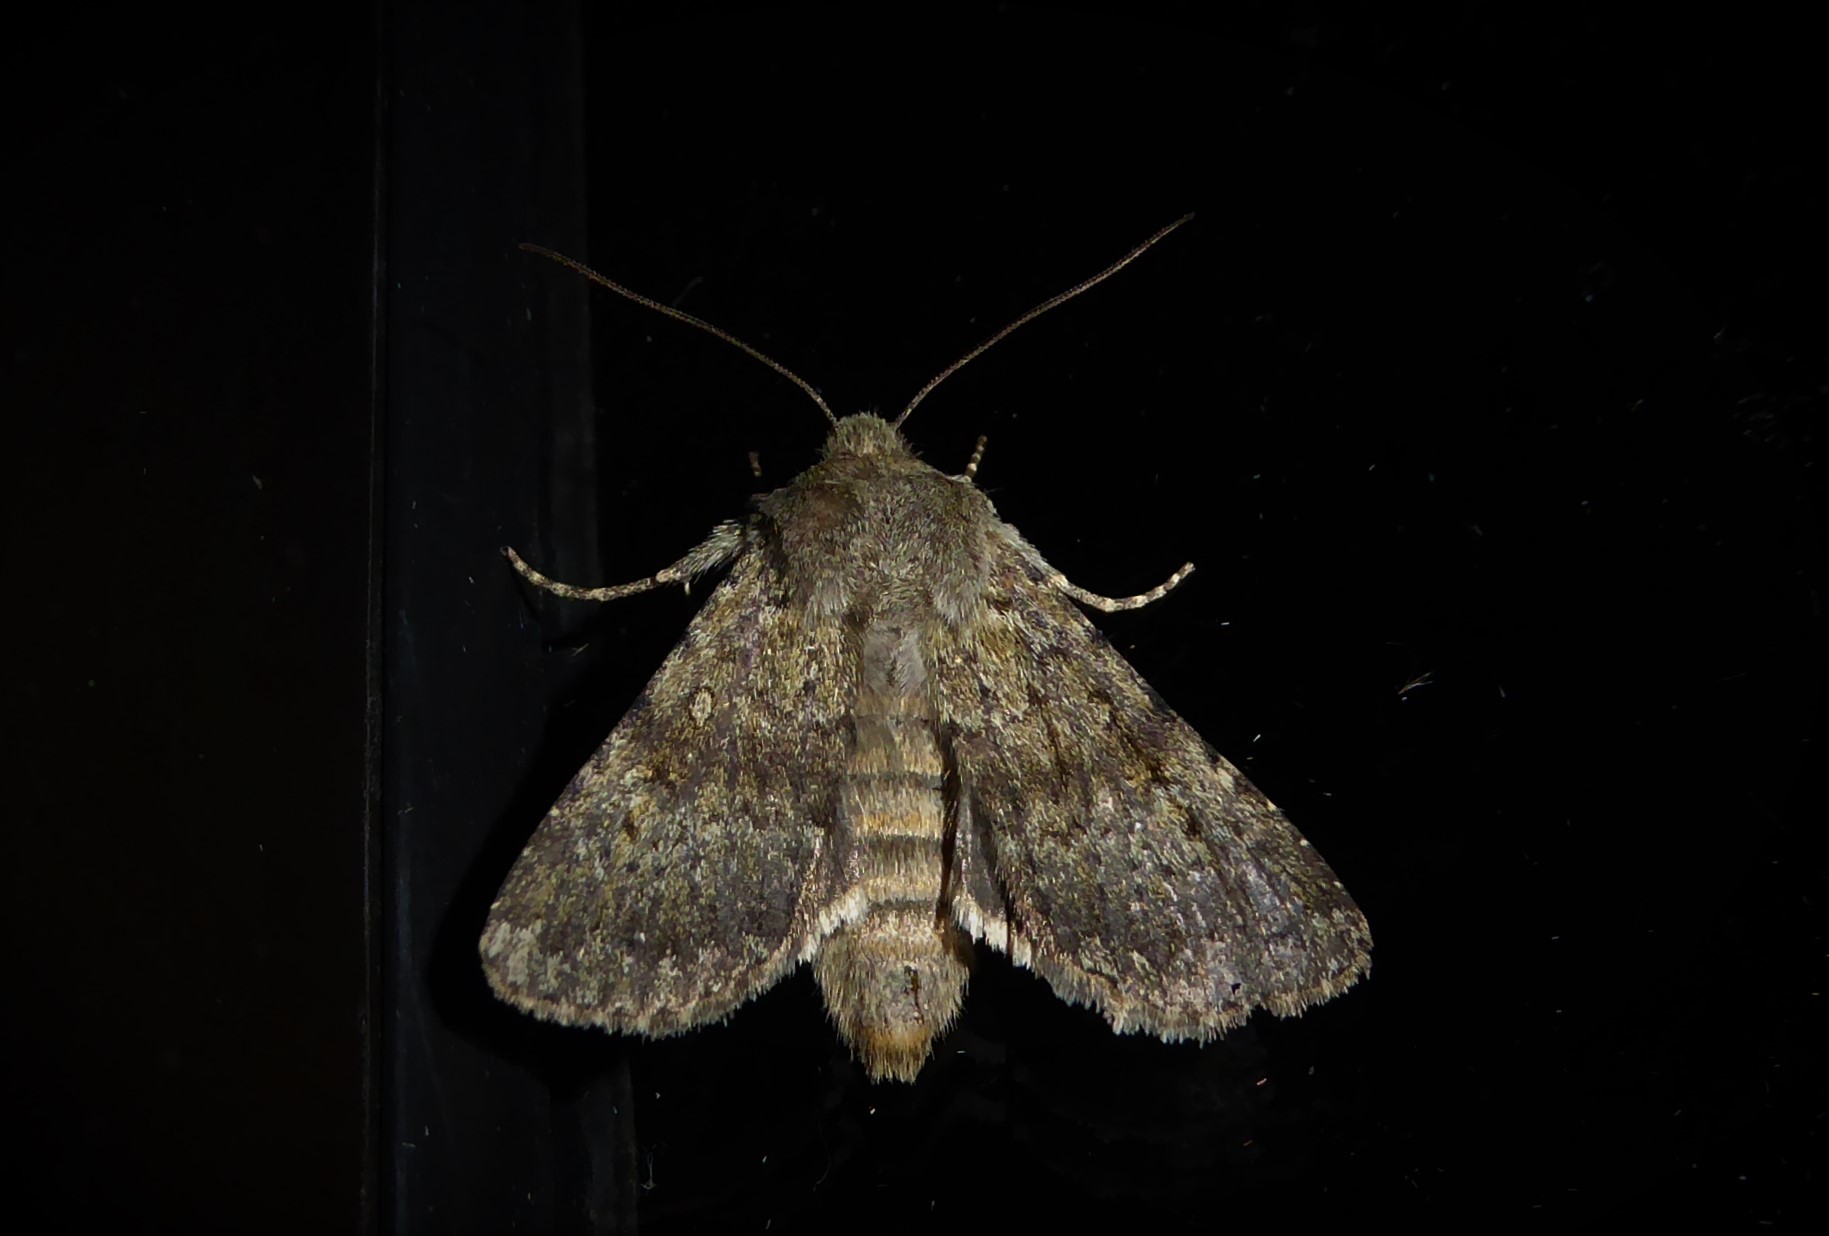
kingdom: Animalia
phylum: Arthropoda
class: Insecta
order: Lepidoptera
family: Noctuidae
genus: Ichneutica
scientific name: Ichneutica moderata
